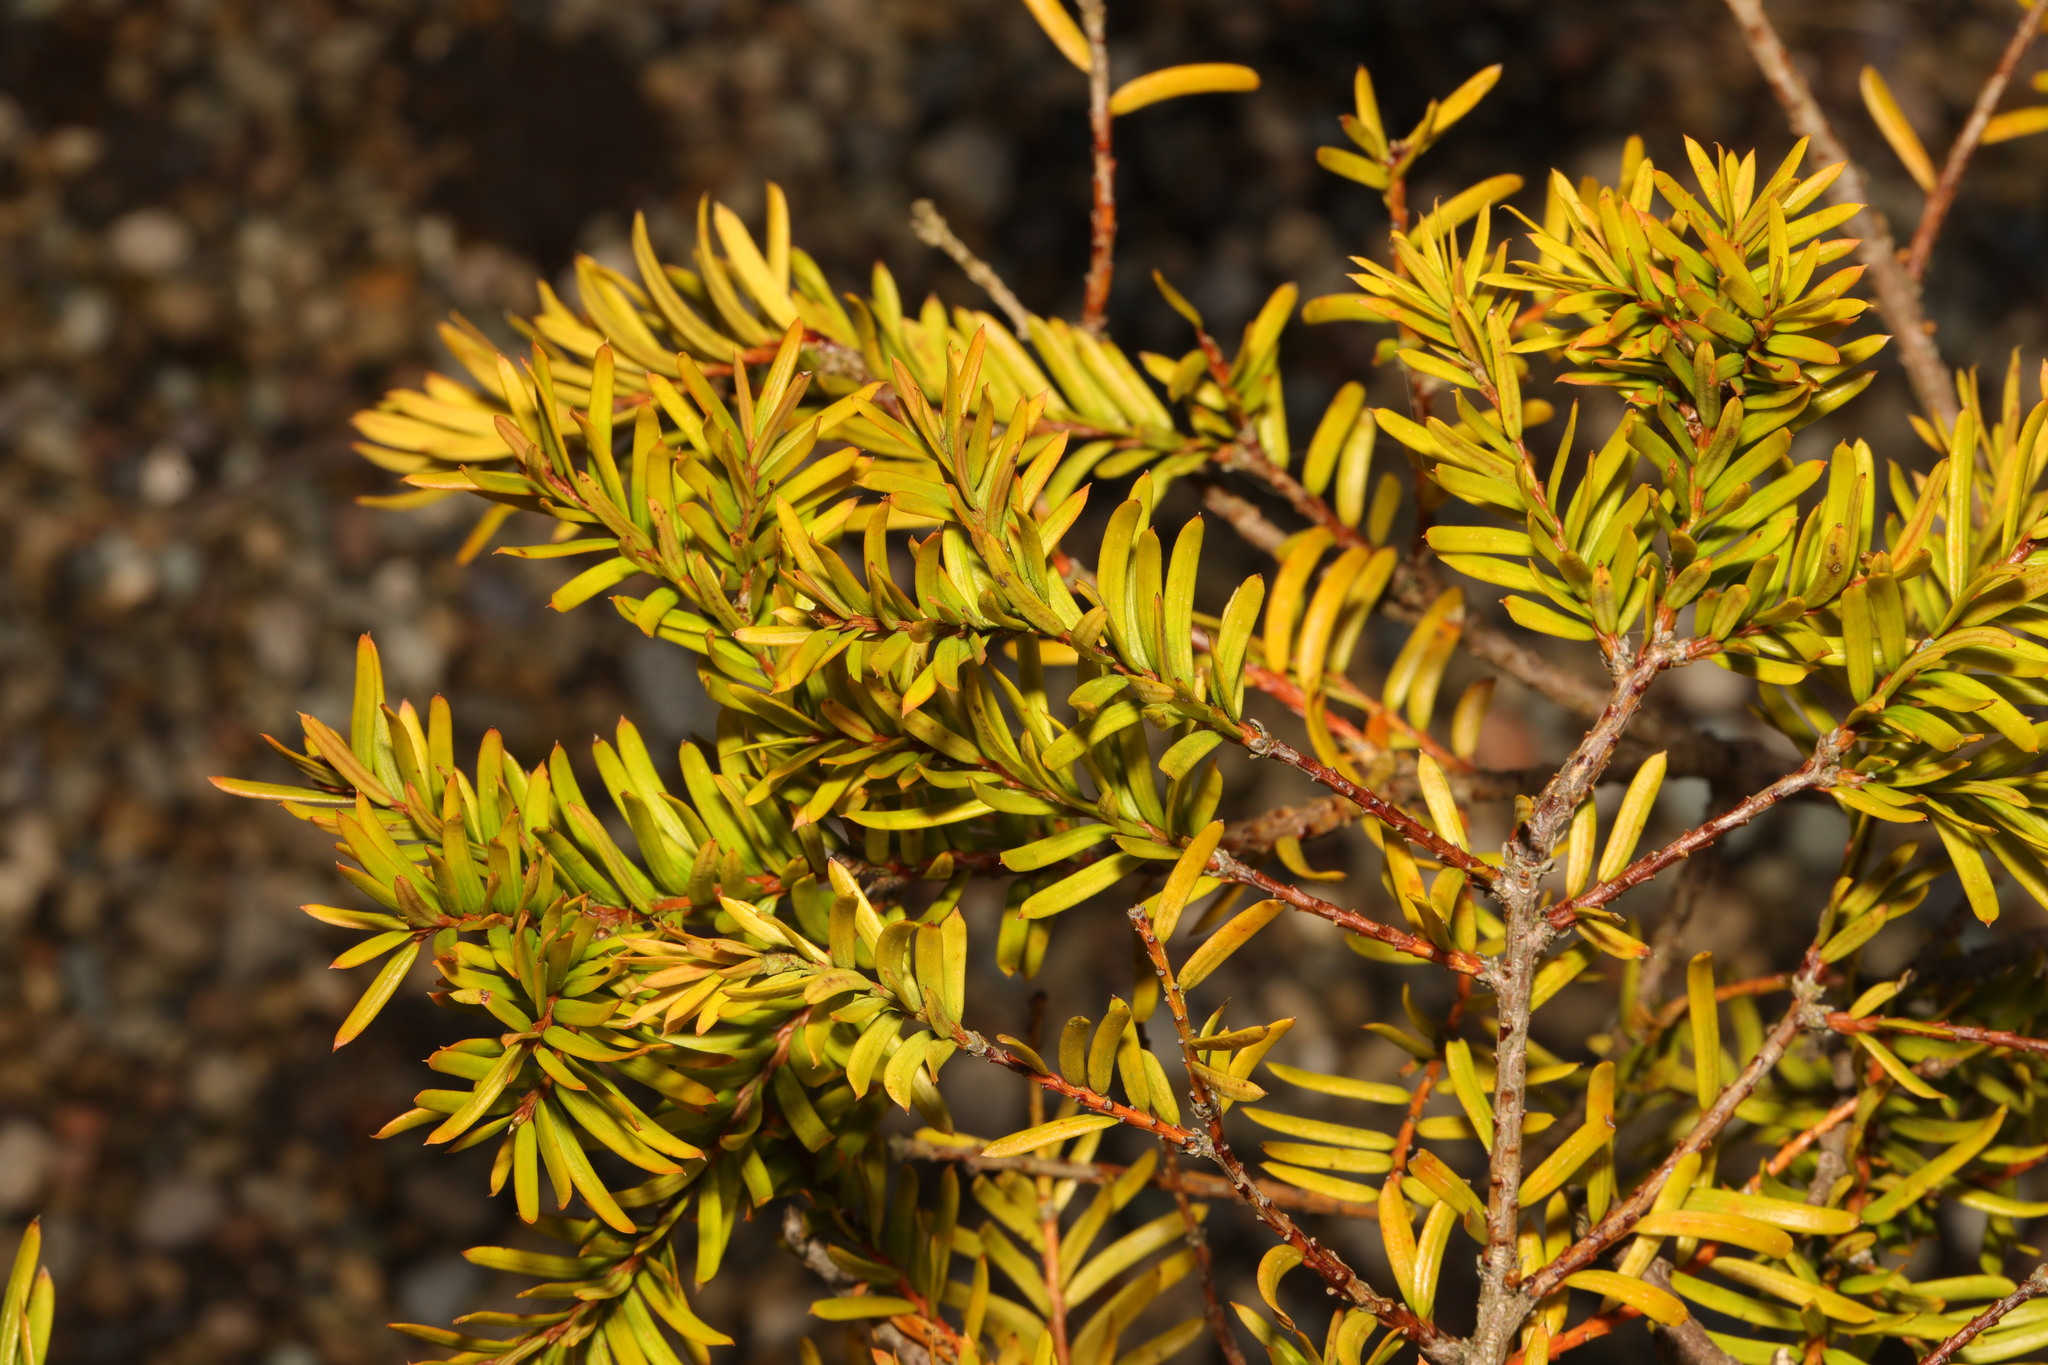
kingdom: Plantae
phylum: Tracheophyta
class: Pinopsida
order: Pinales
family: Taxaceae
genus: Taxus
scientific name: Taxus baccata
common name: Yew
